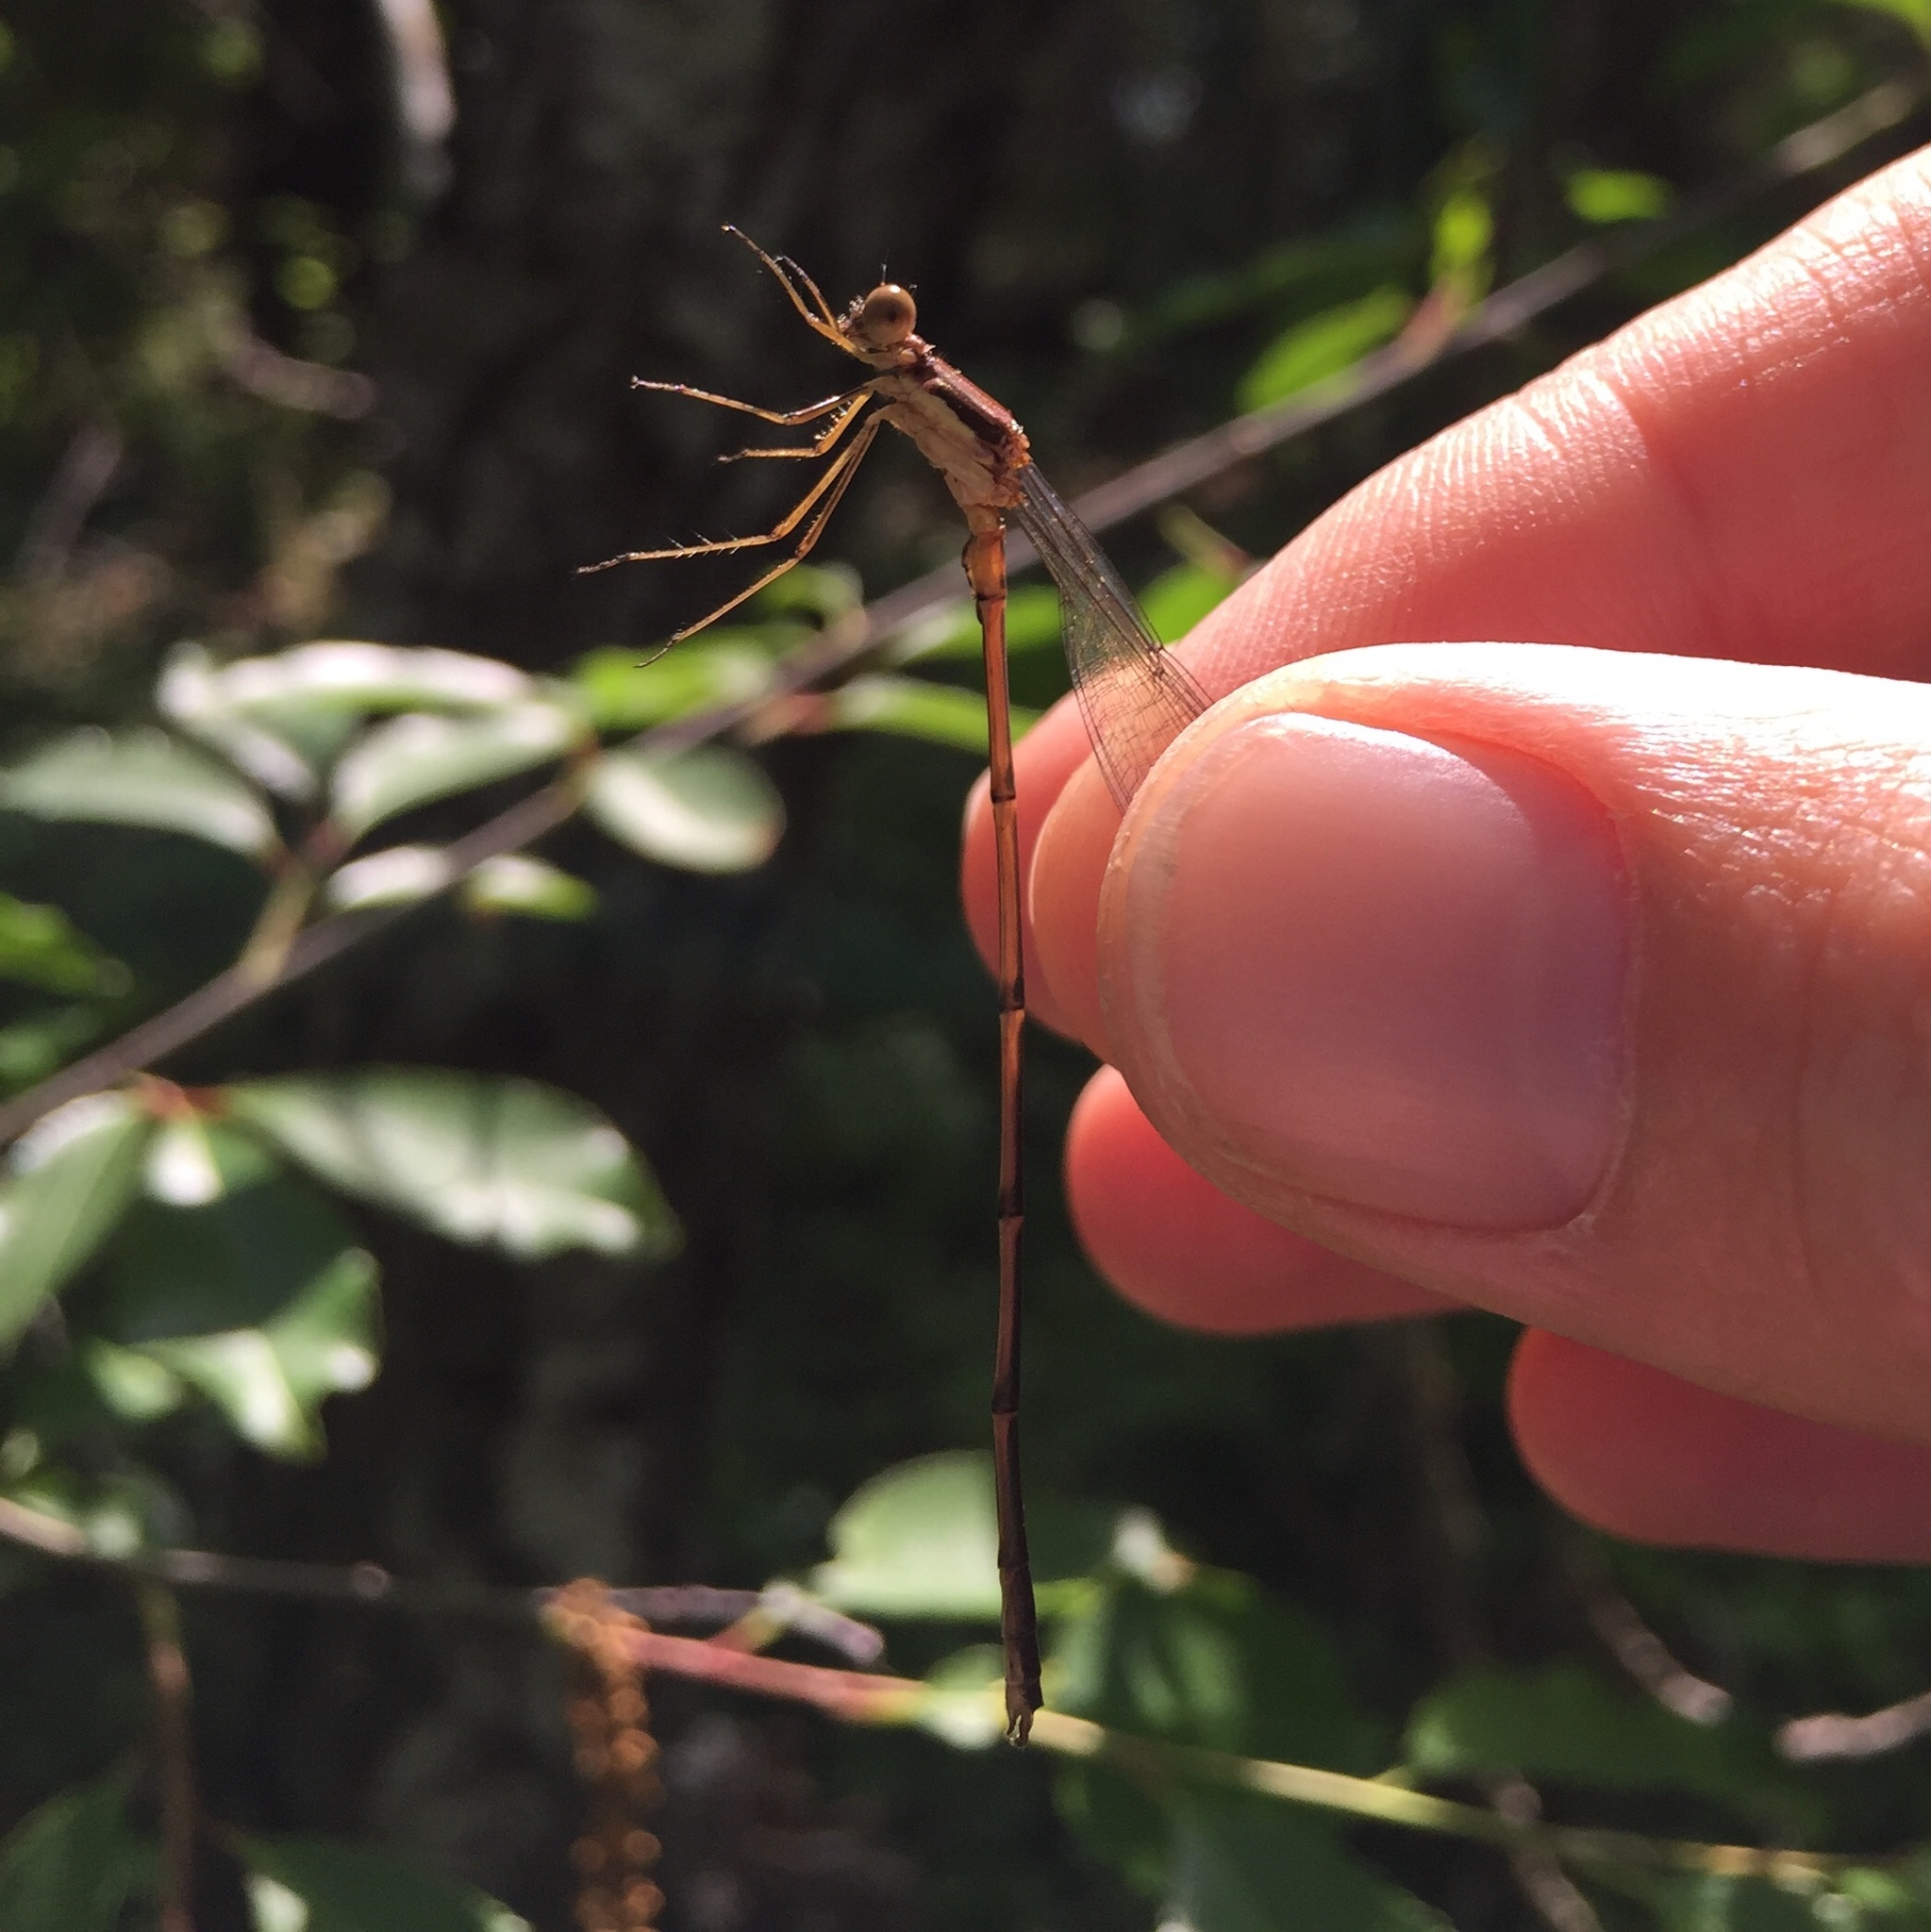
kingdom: Animalia
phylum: Arthropoda
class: Insecta
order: Odonata
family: Lestidae
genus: Lestes
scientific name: Lestes rectangularis
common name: Slender spreadwing
